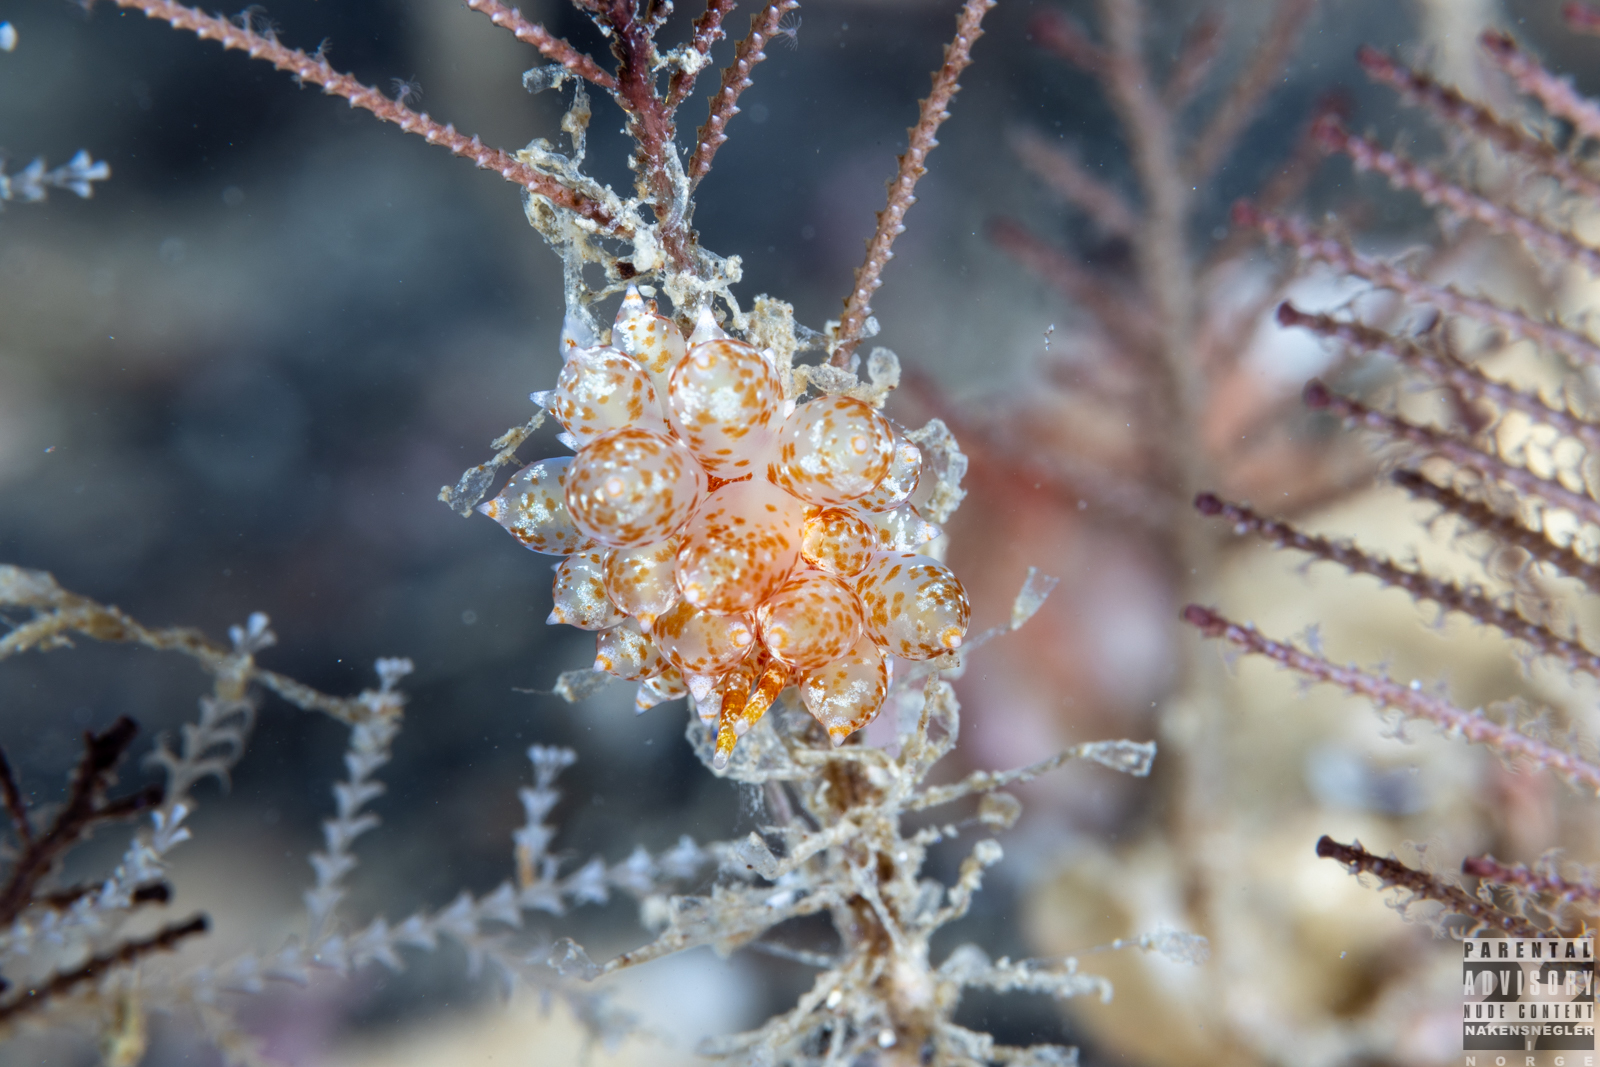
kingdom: Animalia
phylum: Mollusca
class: Gastropoda
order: Nudibranchia
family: Eubranchidae
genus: Amphorina
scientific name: Amphorina pallida
